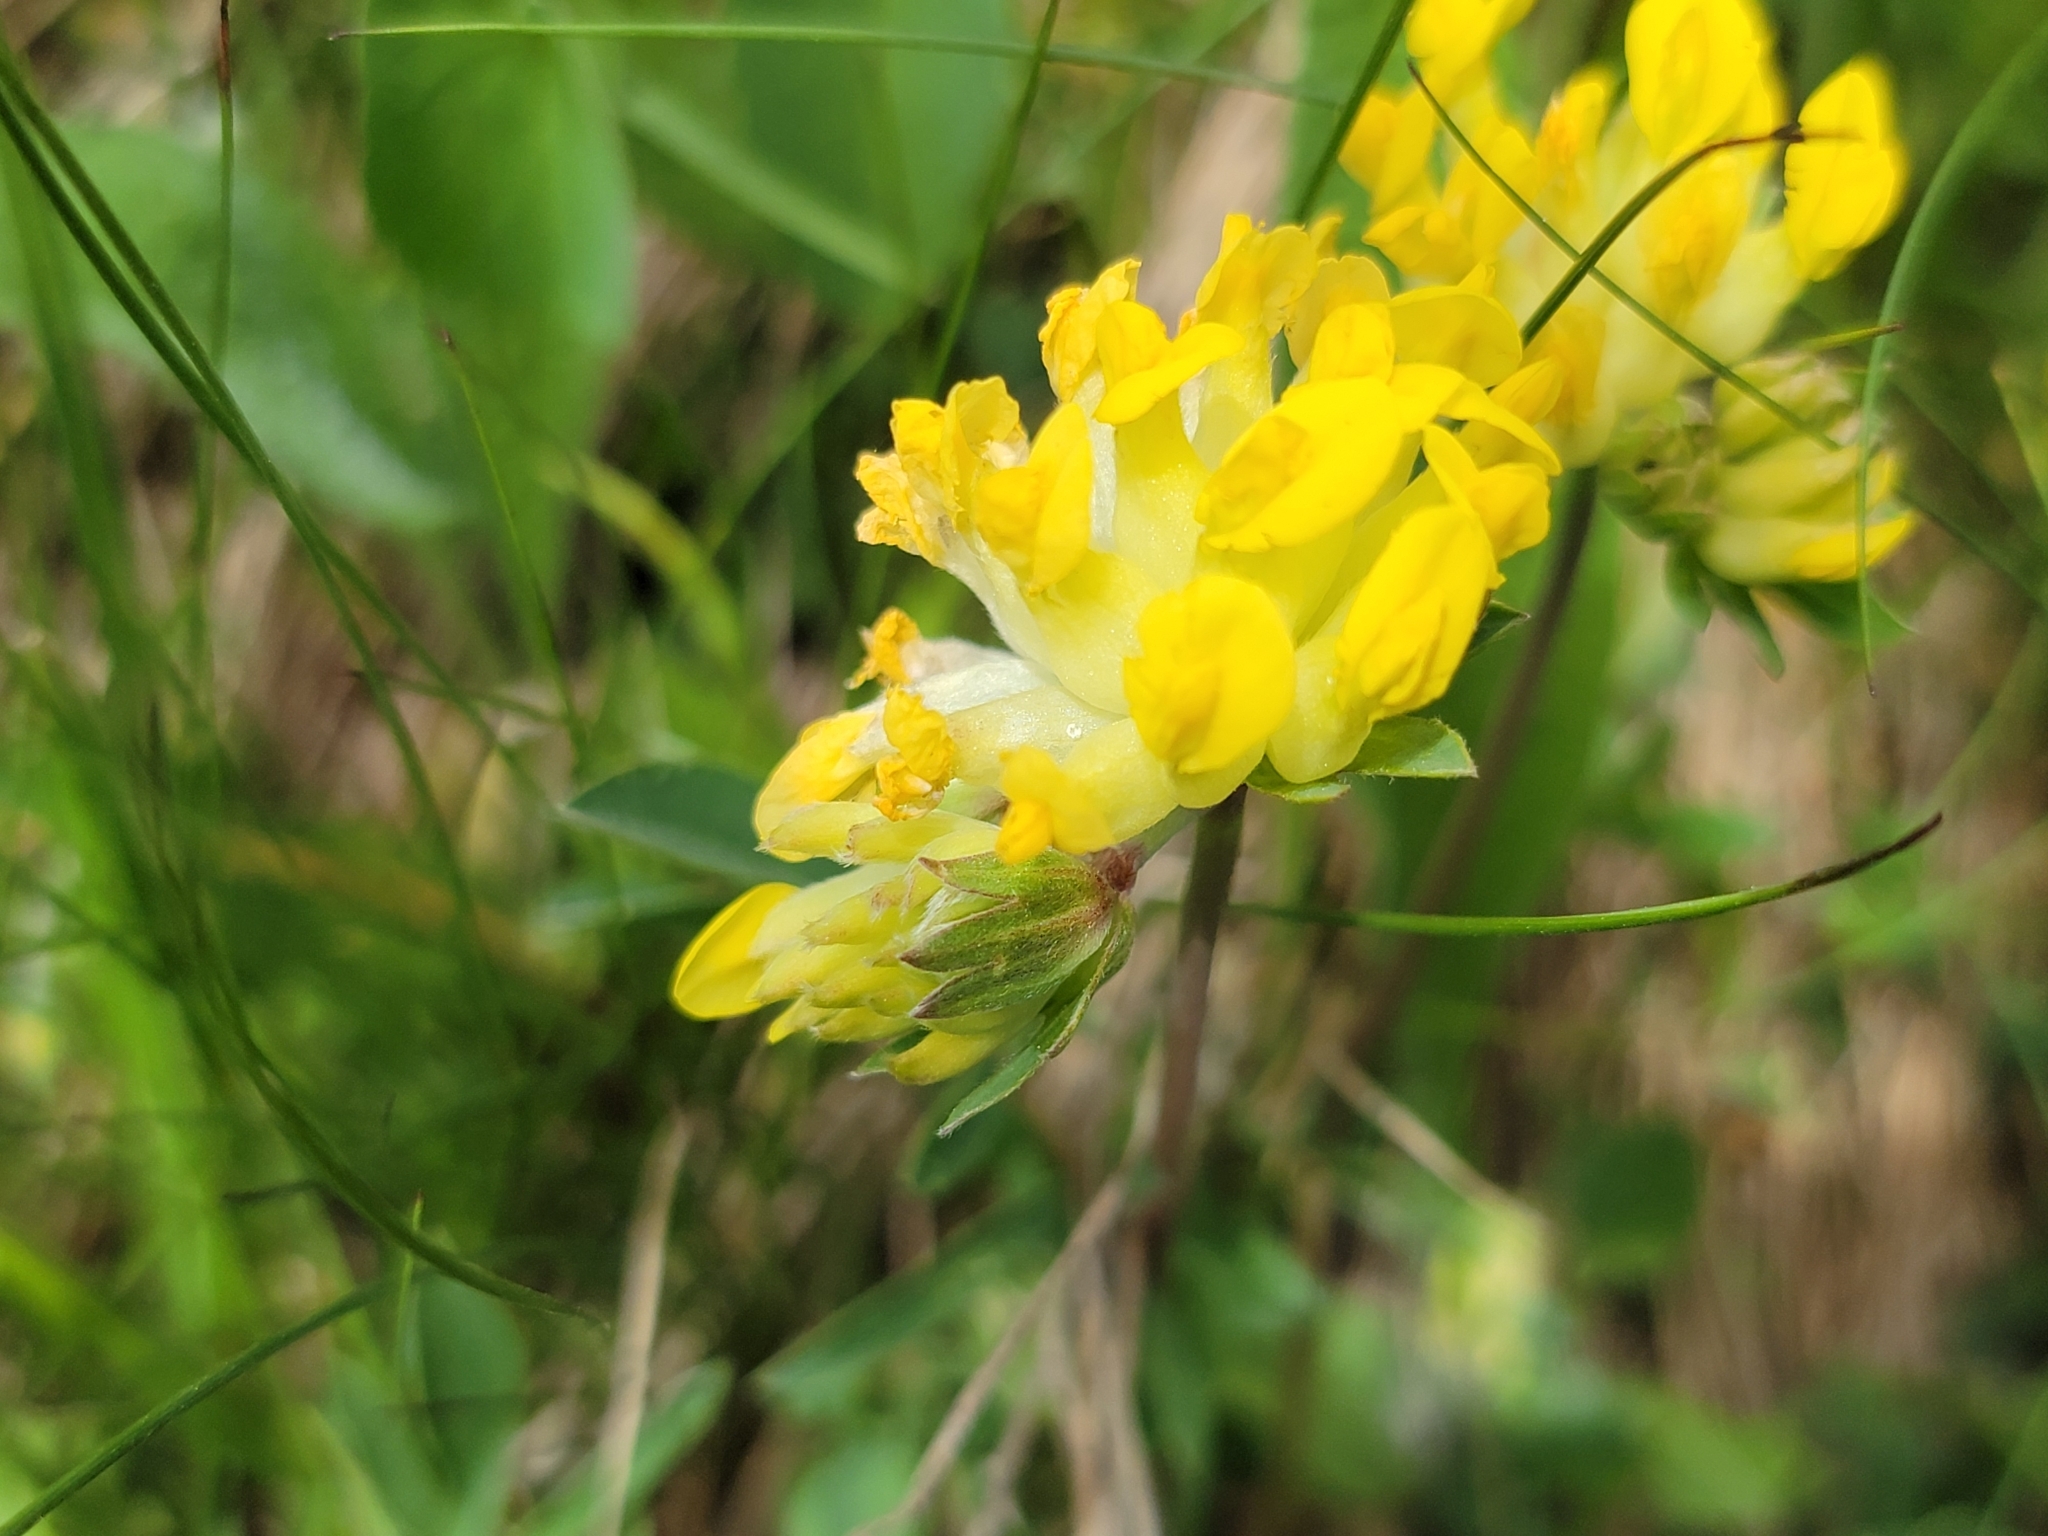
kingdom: Plantae
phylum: Tracheophyta
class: Magnoliopsida
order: Fabales
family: Fabaceae
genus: Anthyllis
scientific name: Anthyllis vulneraria
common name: Kidney vetch
